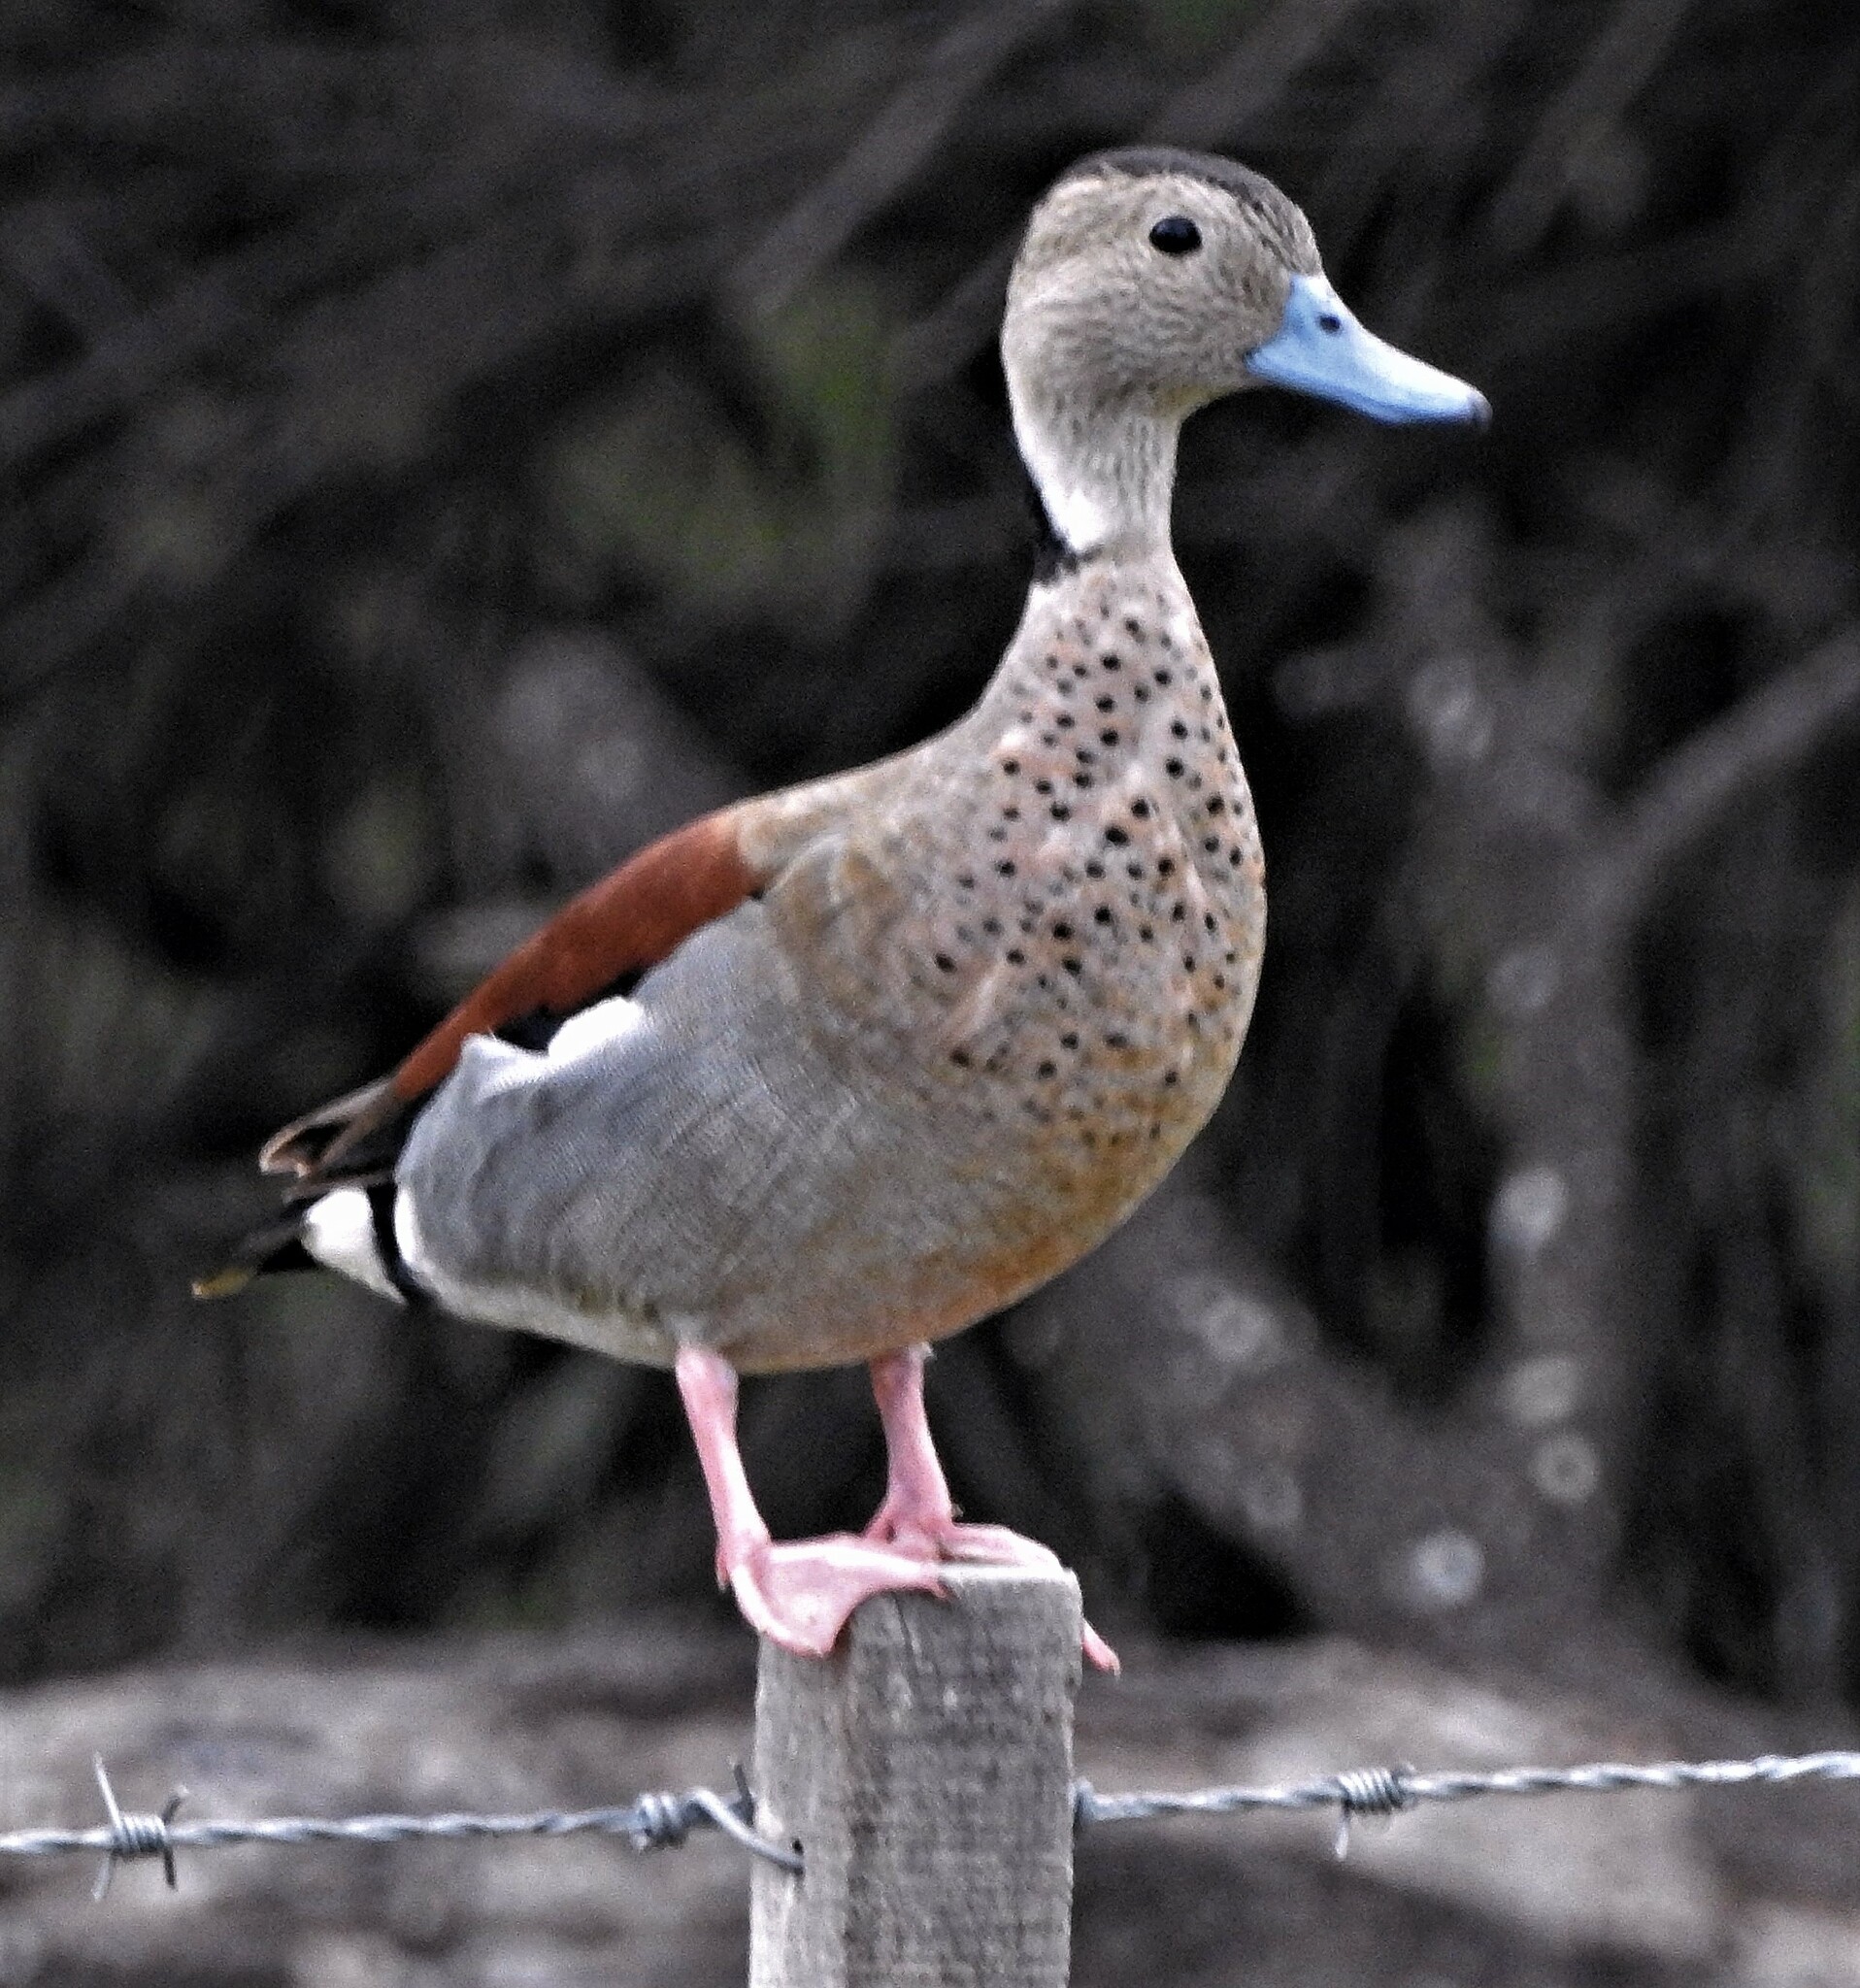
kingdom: Animalia
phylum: Chordata
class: Aves
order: Anseriformes
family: Anatidae
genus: Callonetta
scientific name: Callonetta leucophrys
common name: Ringed teal
